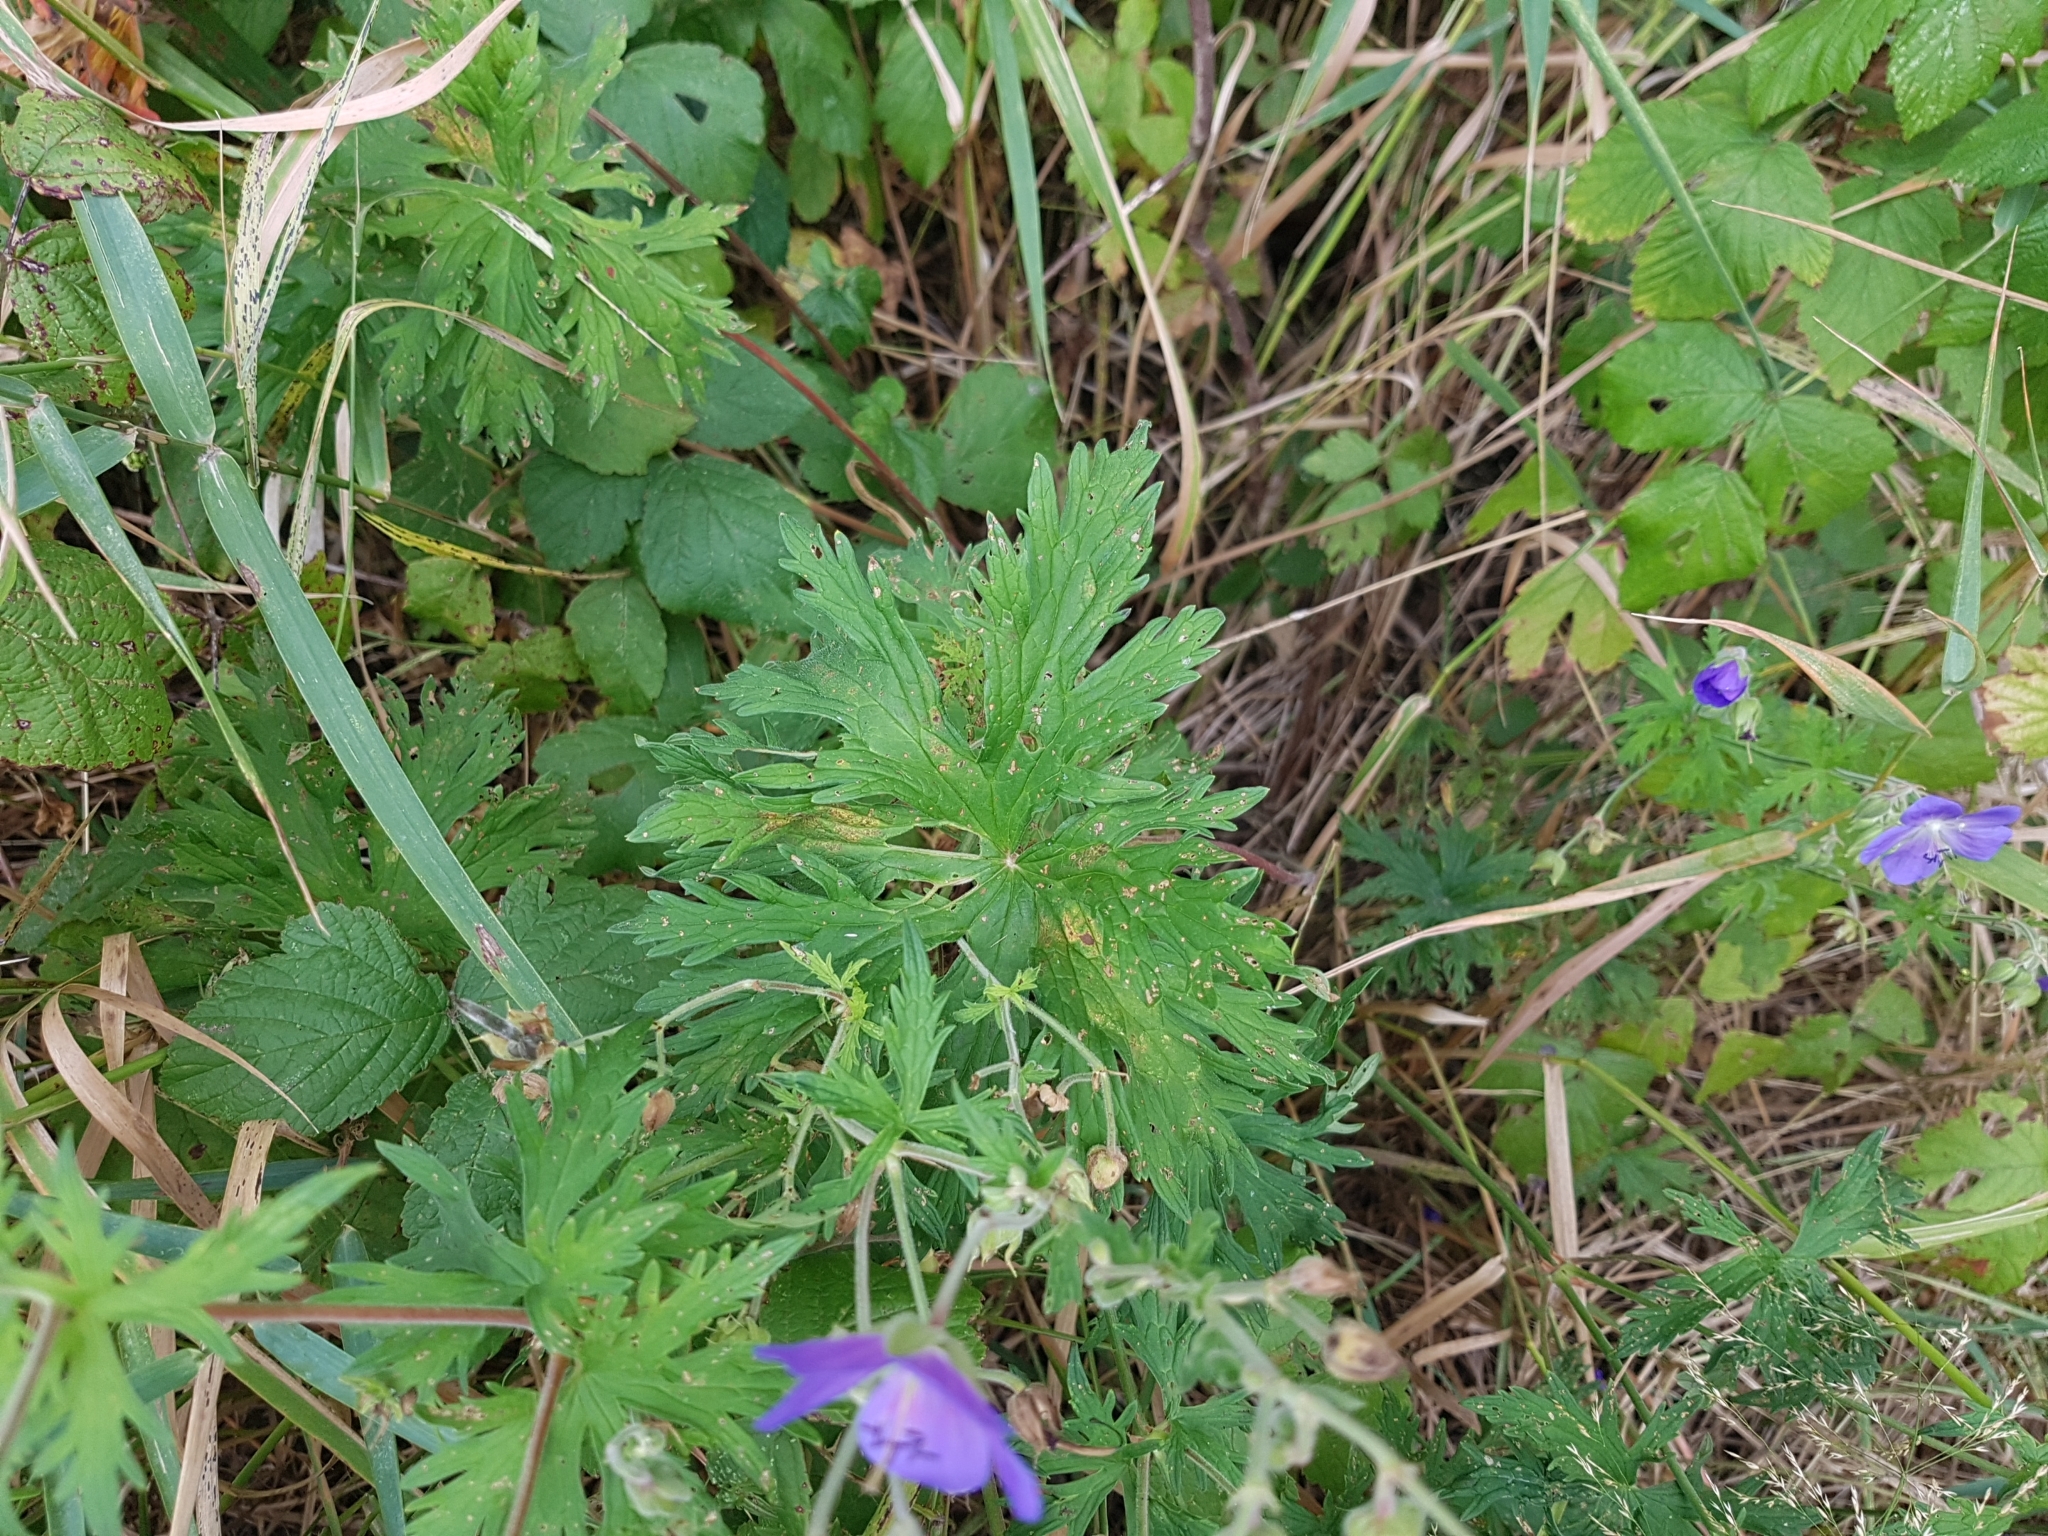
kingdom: Plantae
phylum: Tracheophyta
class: Magnoliopsida
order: Geraniales
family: Geraniaceae
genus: Geranium
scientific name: Geranium pratense
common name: Meadow crane's-bill
